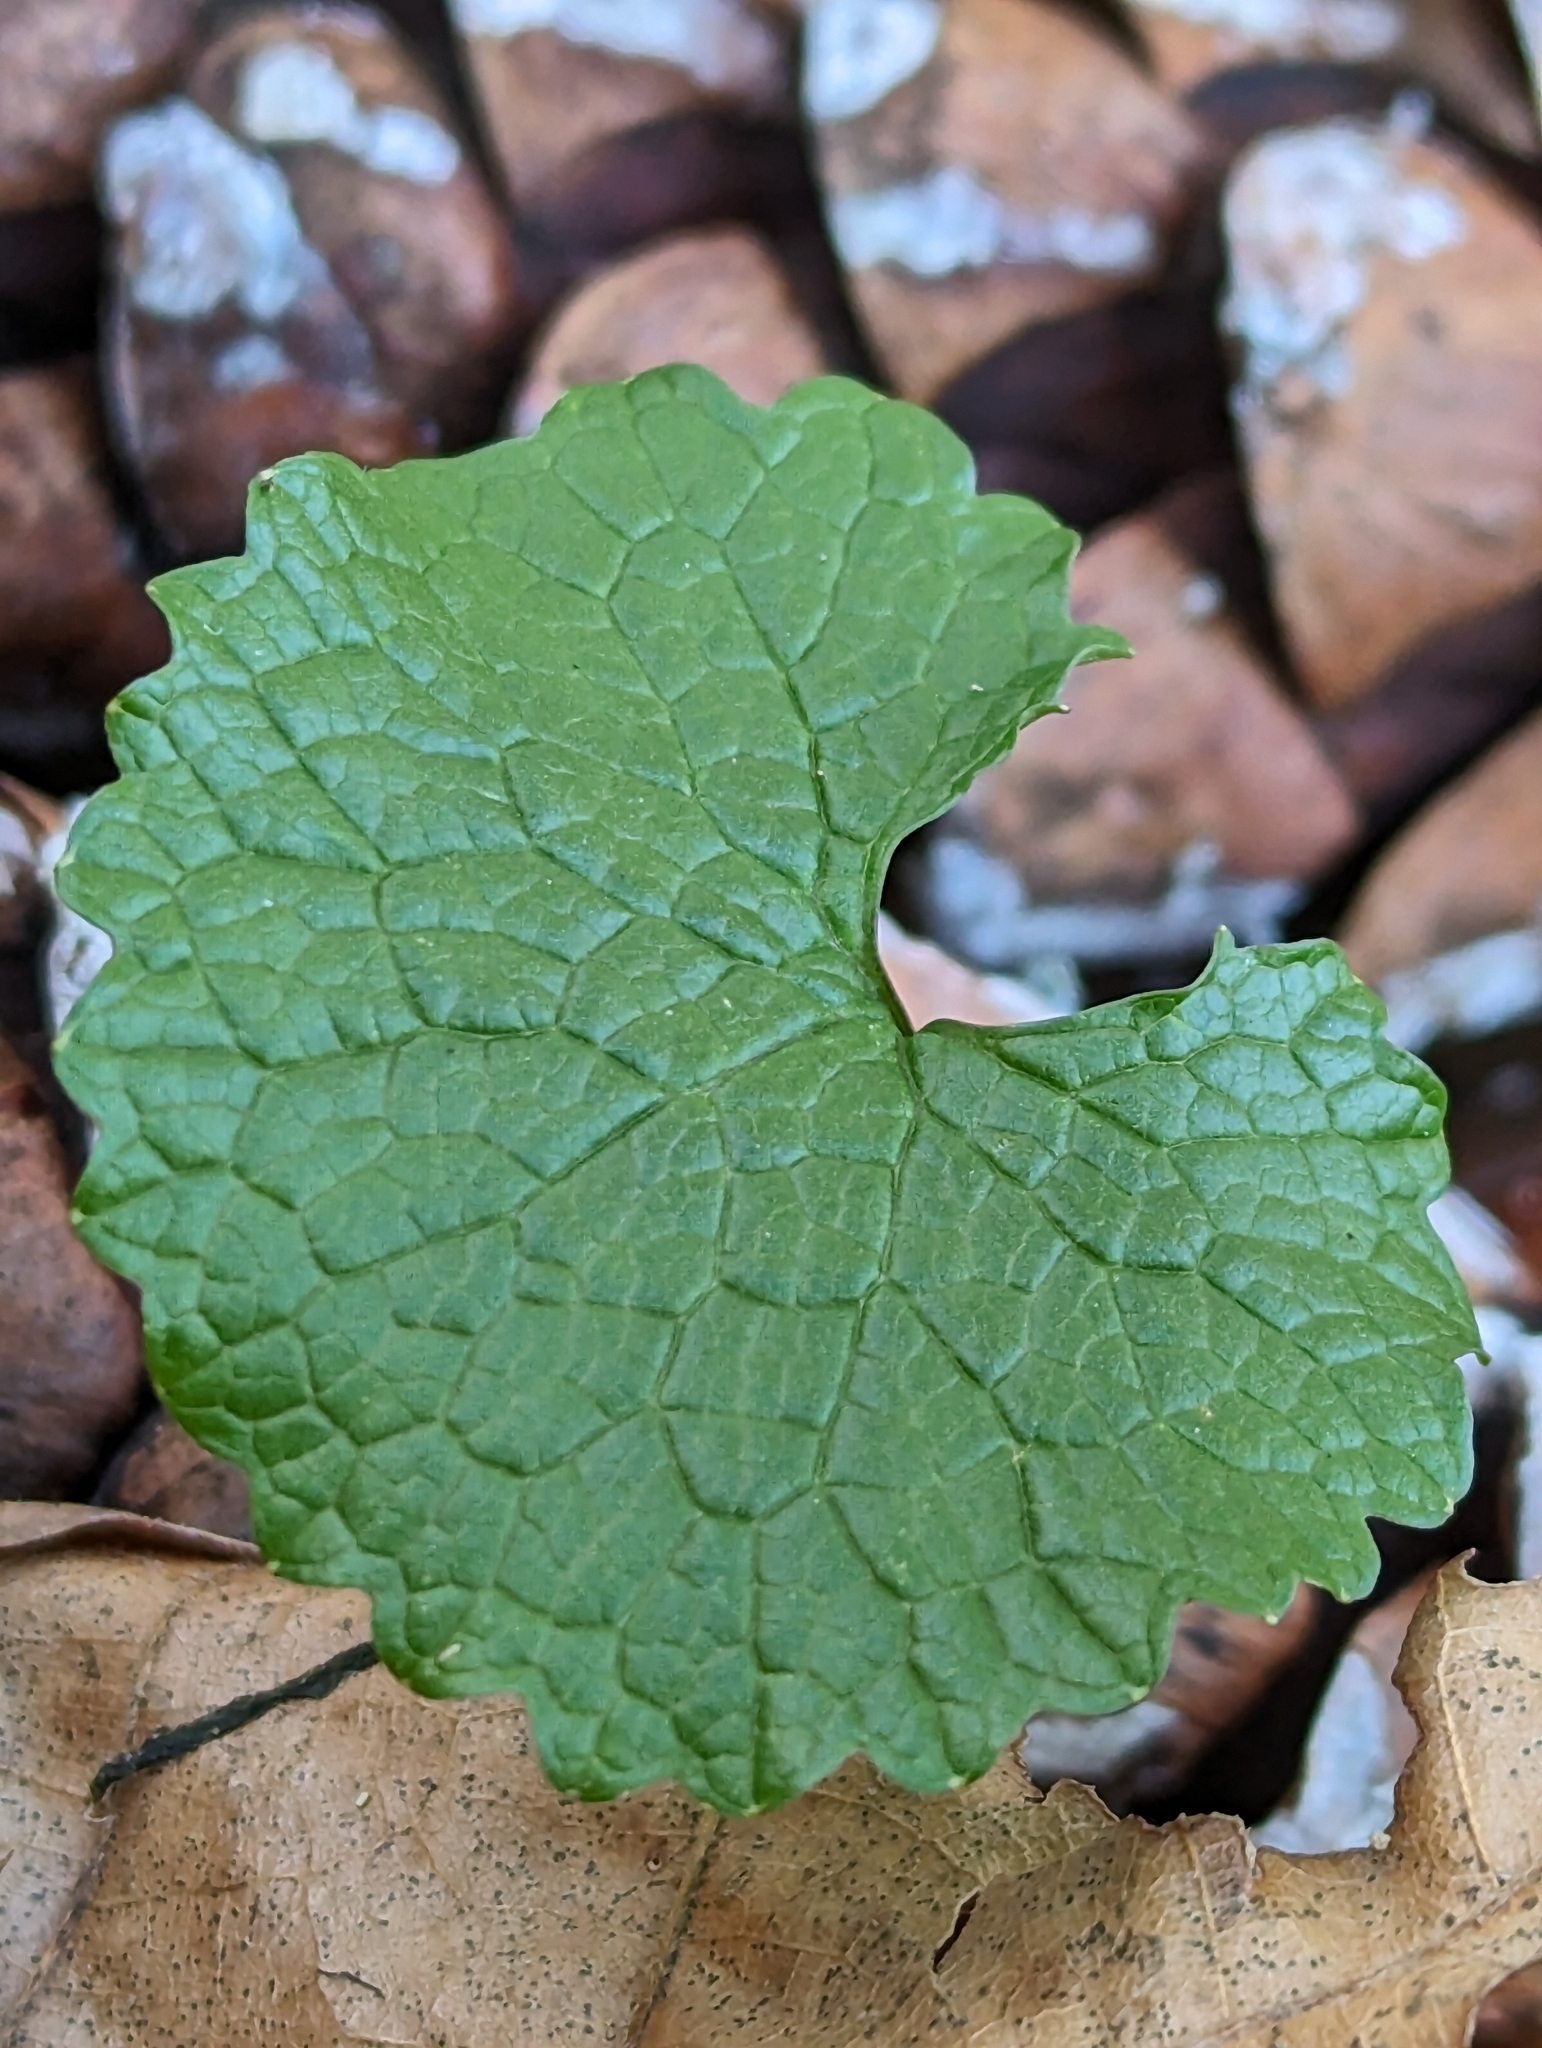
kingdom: Plantae
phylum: Tracheophyta
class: Magnoliopsida
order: Brassicales
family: Brassicaceae
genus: Alliaria
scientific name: Alliaria petiolata
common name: Garlic mustard
